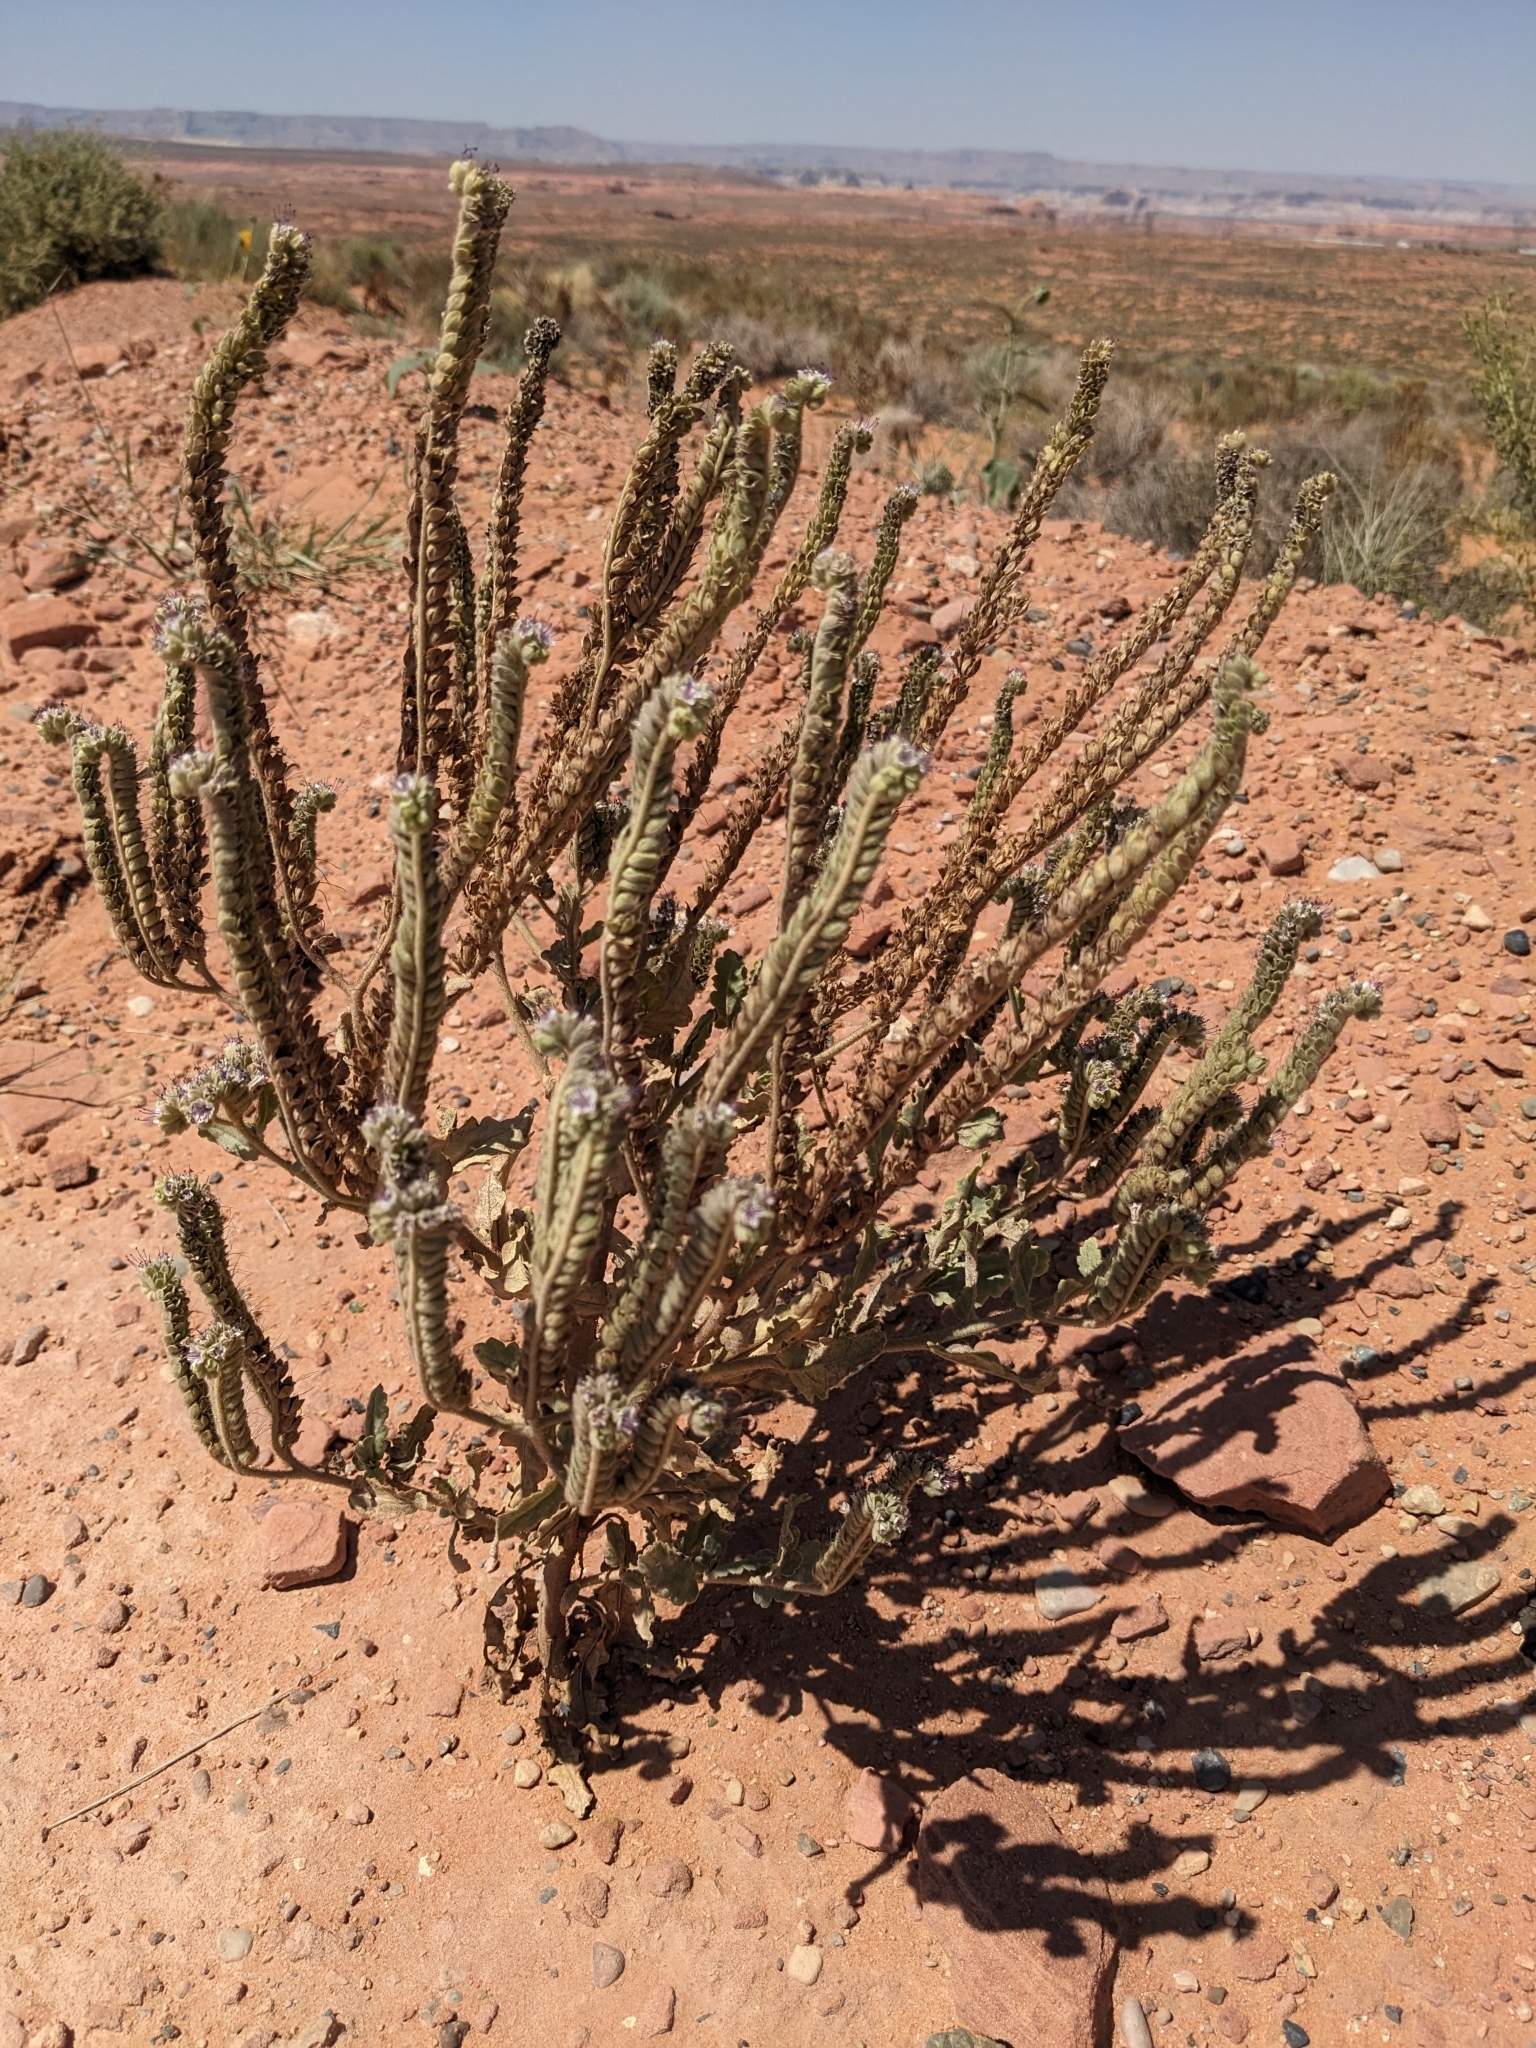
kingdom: Plantae
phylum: Tracheophyta
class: Magnoliopsida
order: Boraginales
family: Hydrophyllaceae
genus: Phacelia
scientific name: Phacelia integrifolia
